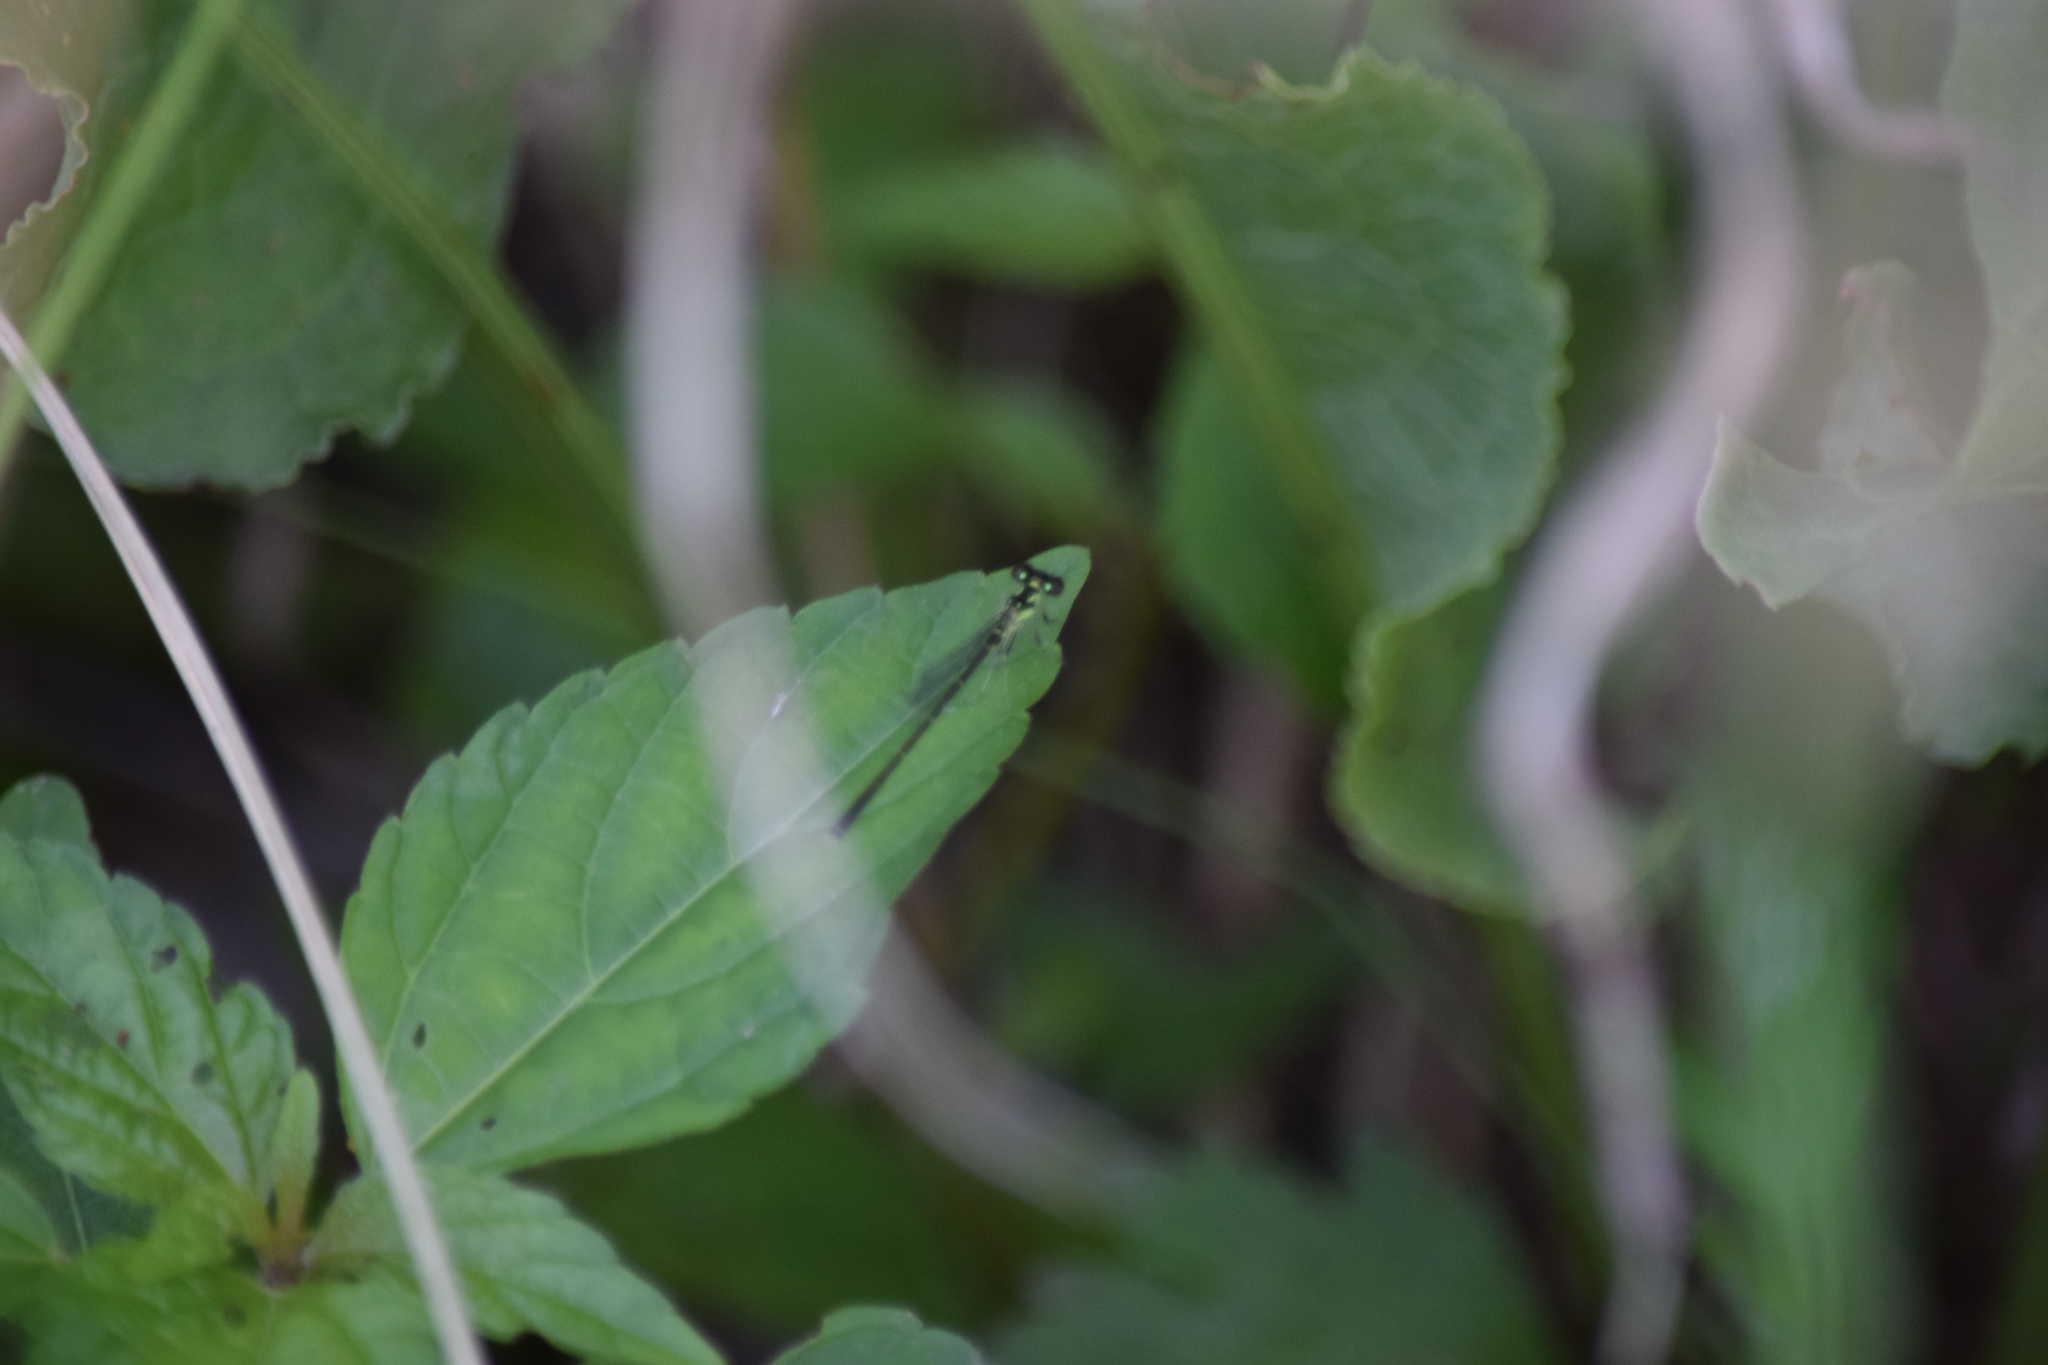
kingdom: Animalia
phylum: Arthropoda
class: Insecta
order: Odonata
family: Coenagrionidae
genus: Ischnura
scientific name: Ischnura posita
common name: Fragile forktail
